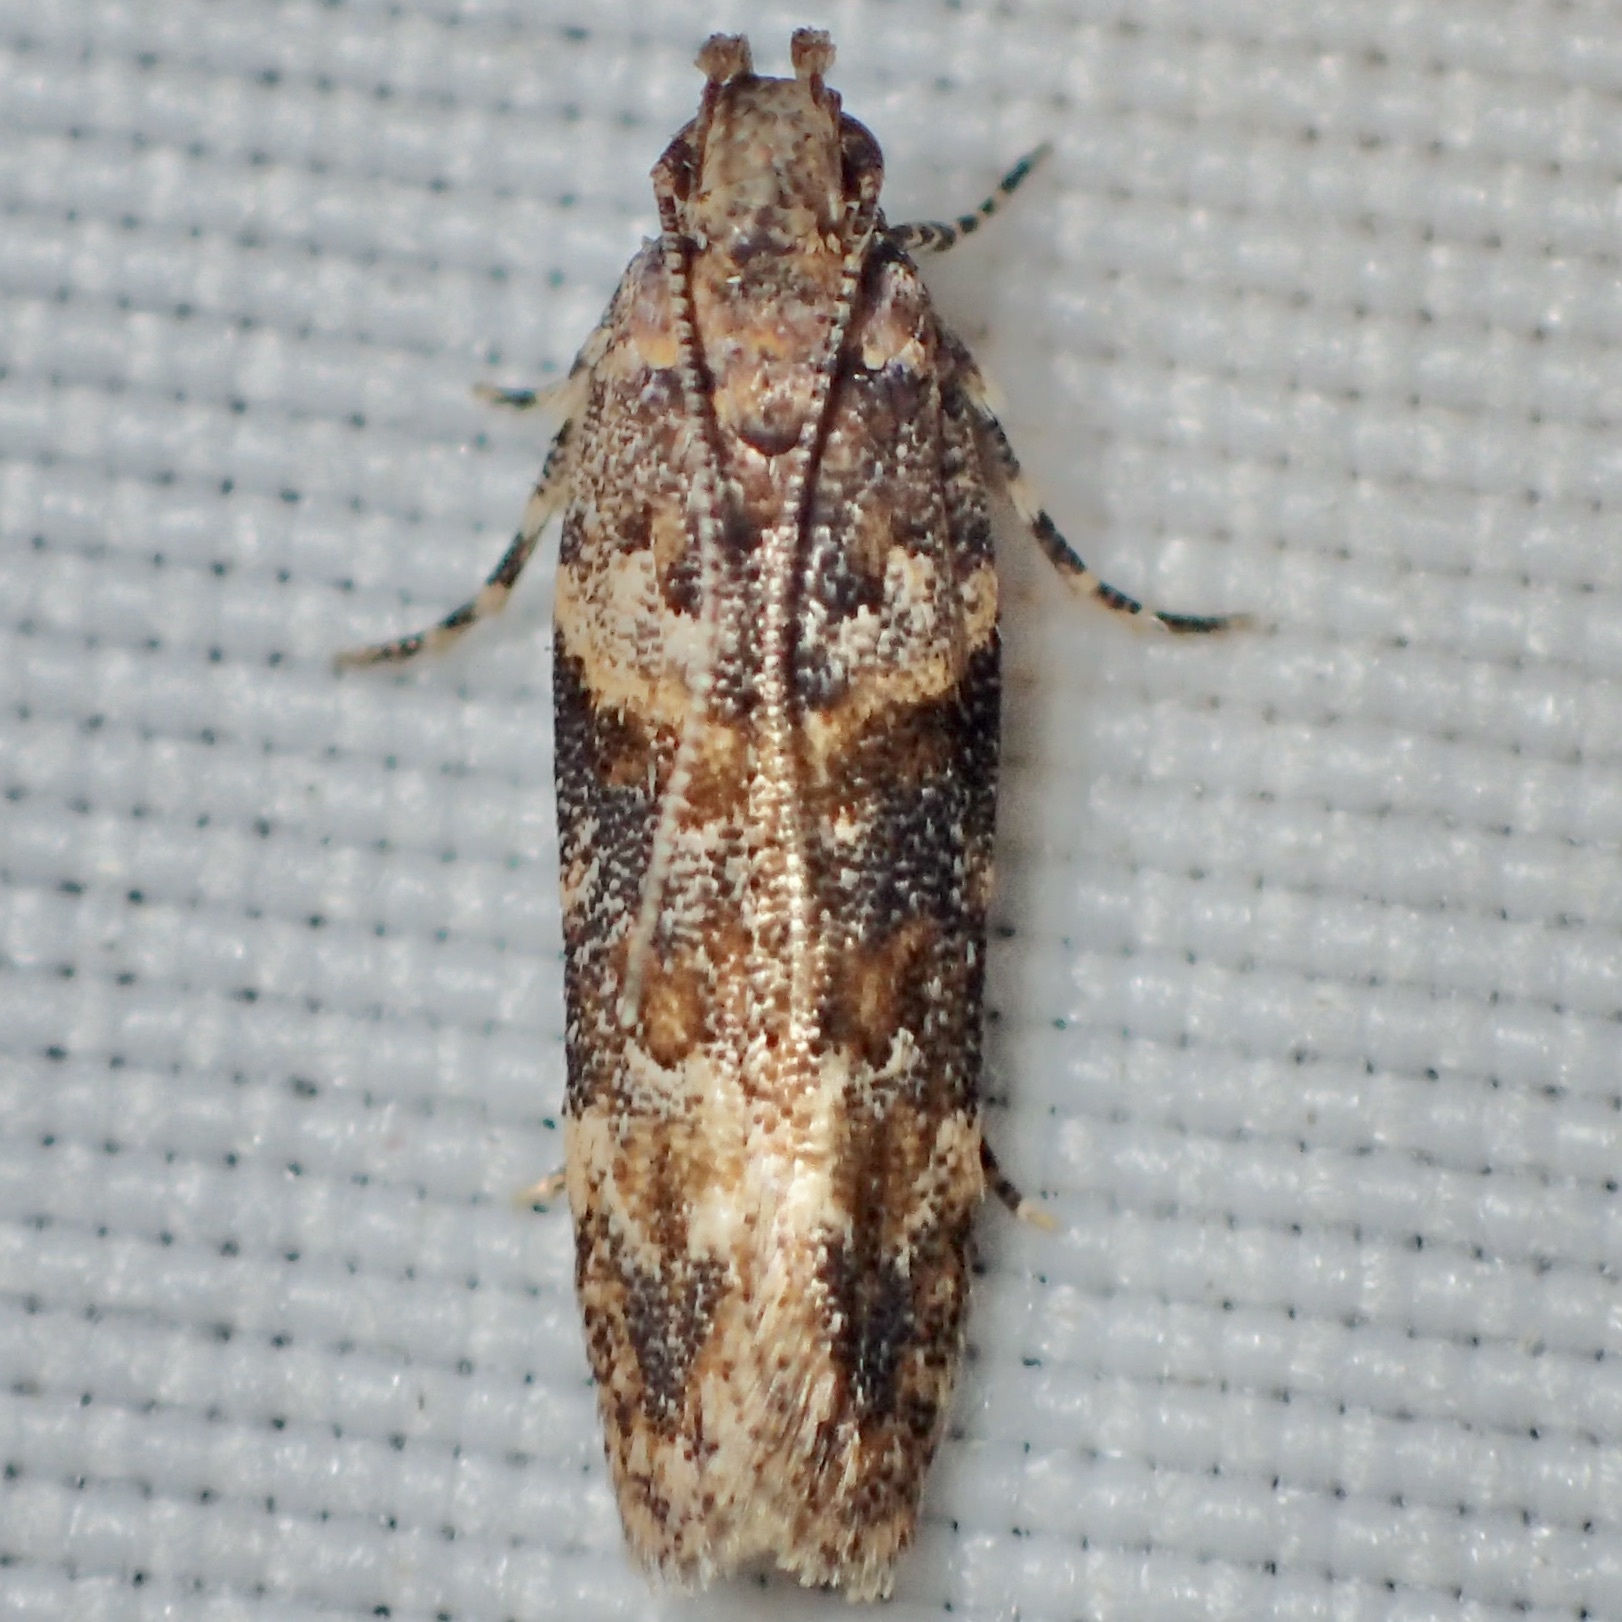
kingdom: Animalia
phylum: Arthropoda
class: Insecta
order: Lepidoptera
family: Gelechiidae
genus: Friseria
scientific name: Friseria nona
